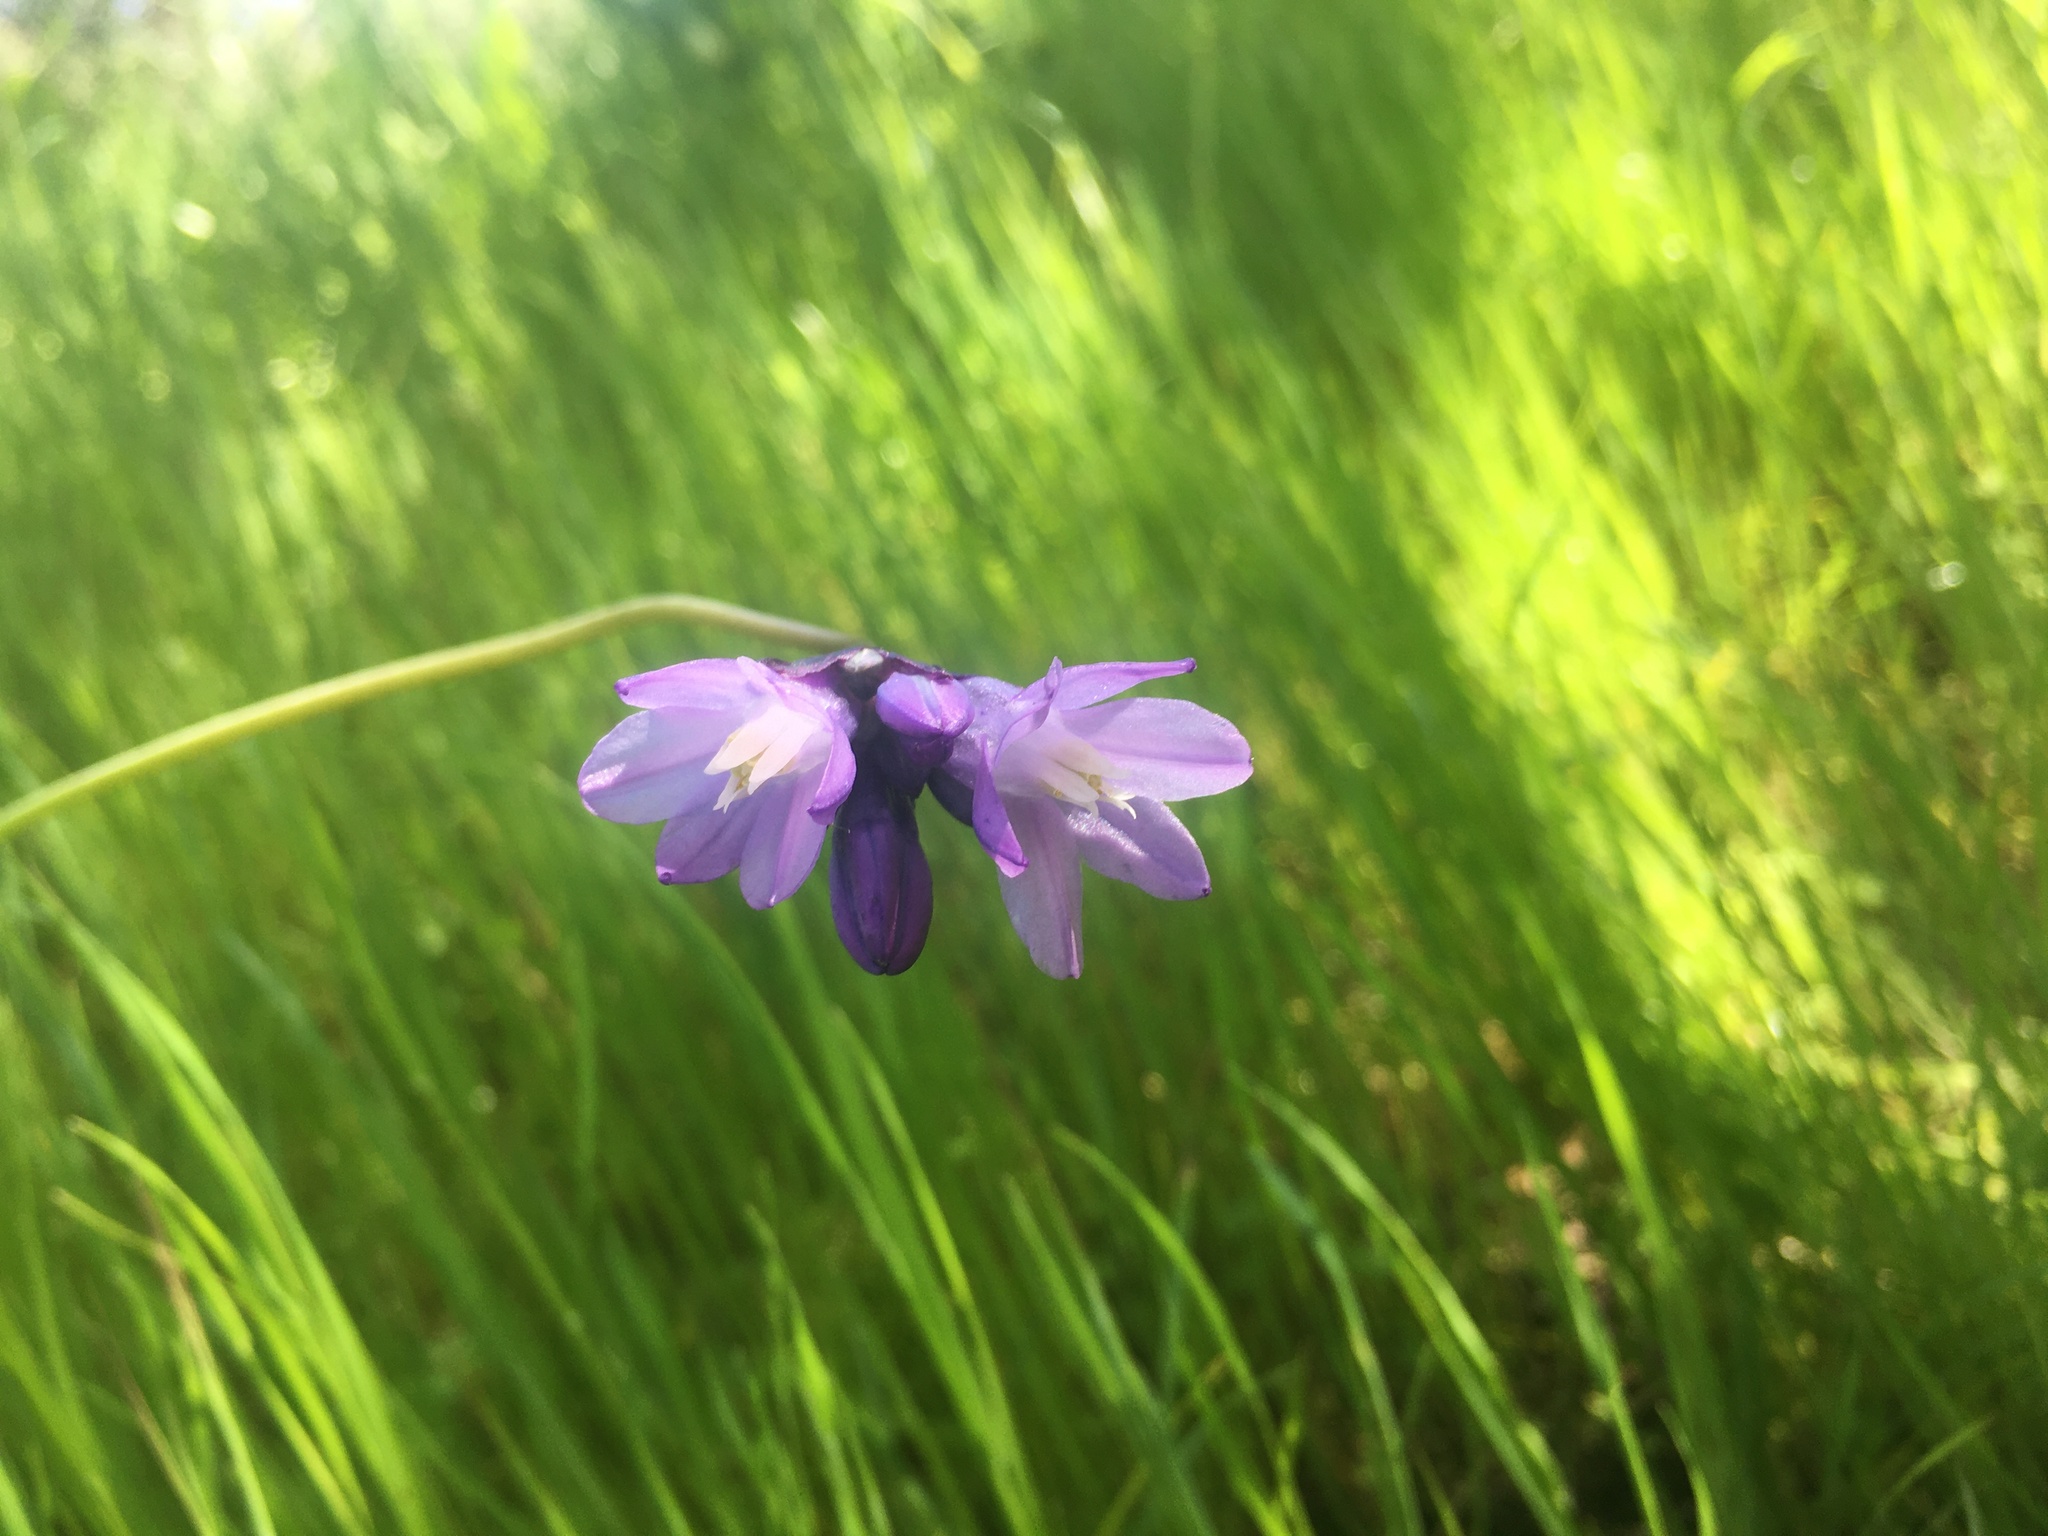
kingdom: Plantae
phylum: Tracheophyta
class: Liliopsida
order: Asparagales
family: Asparagaceae
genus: Dipterostemon
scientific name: Dipterostemon capitatus
